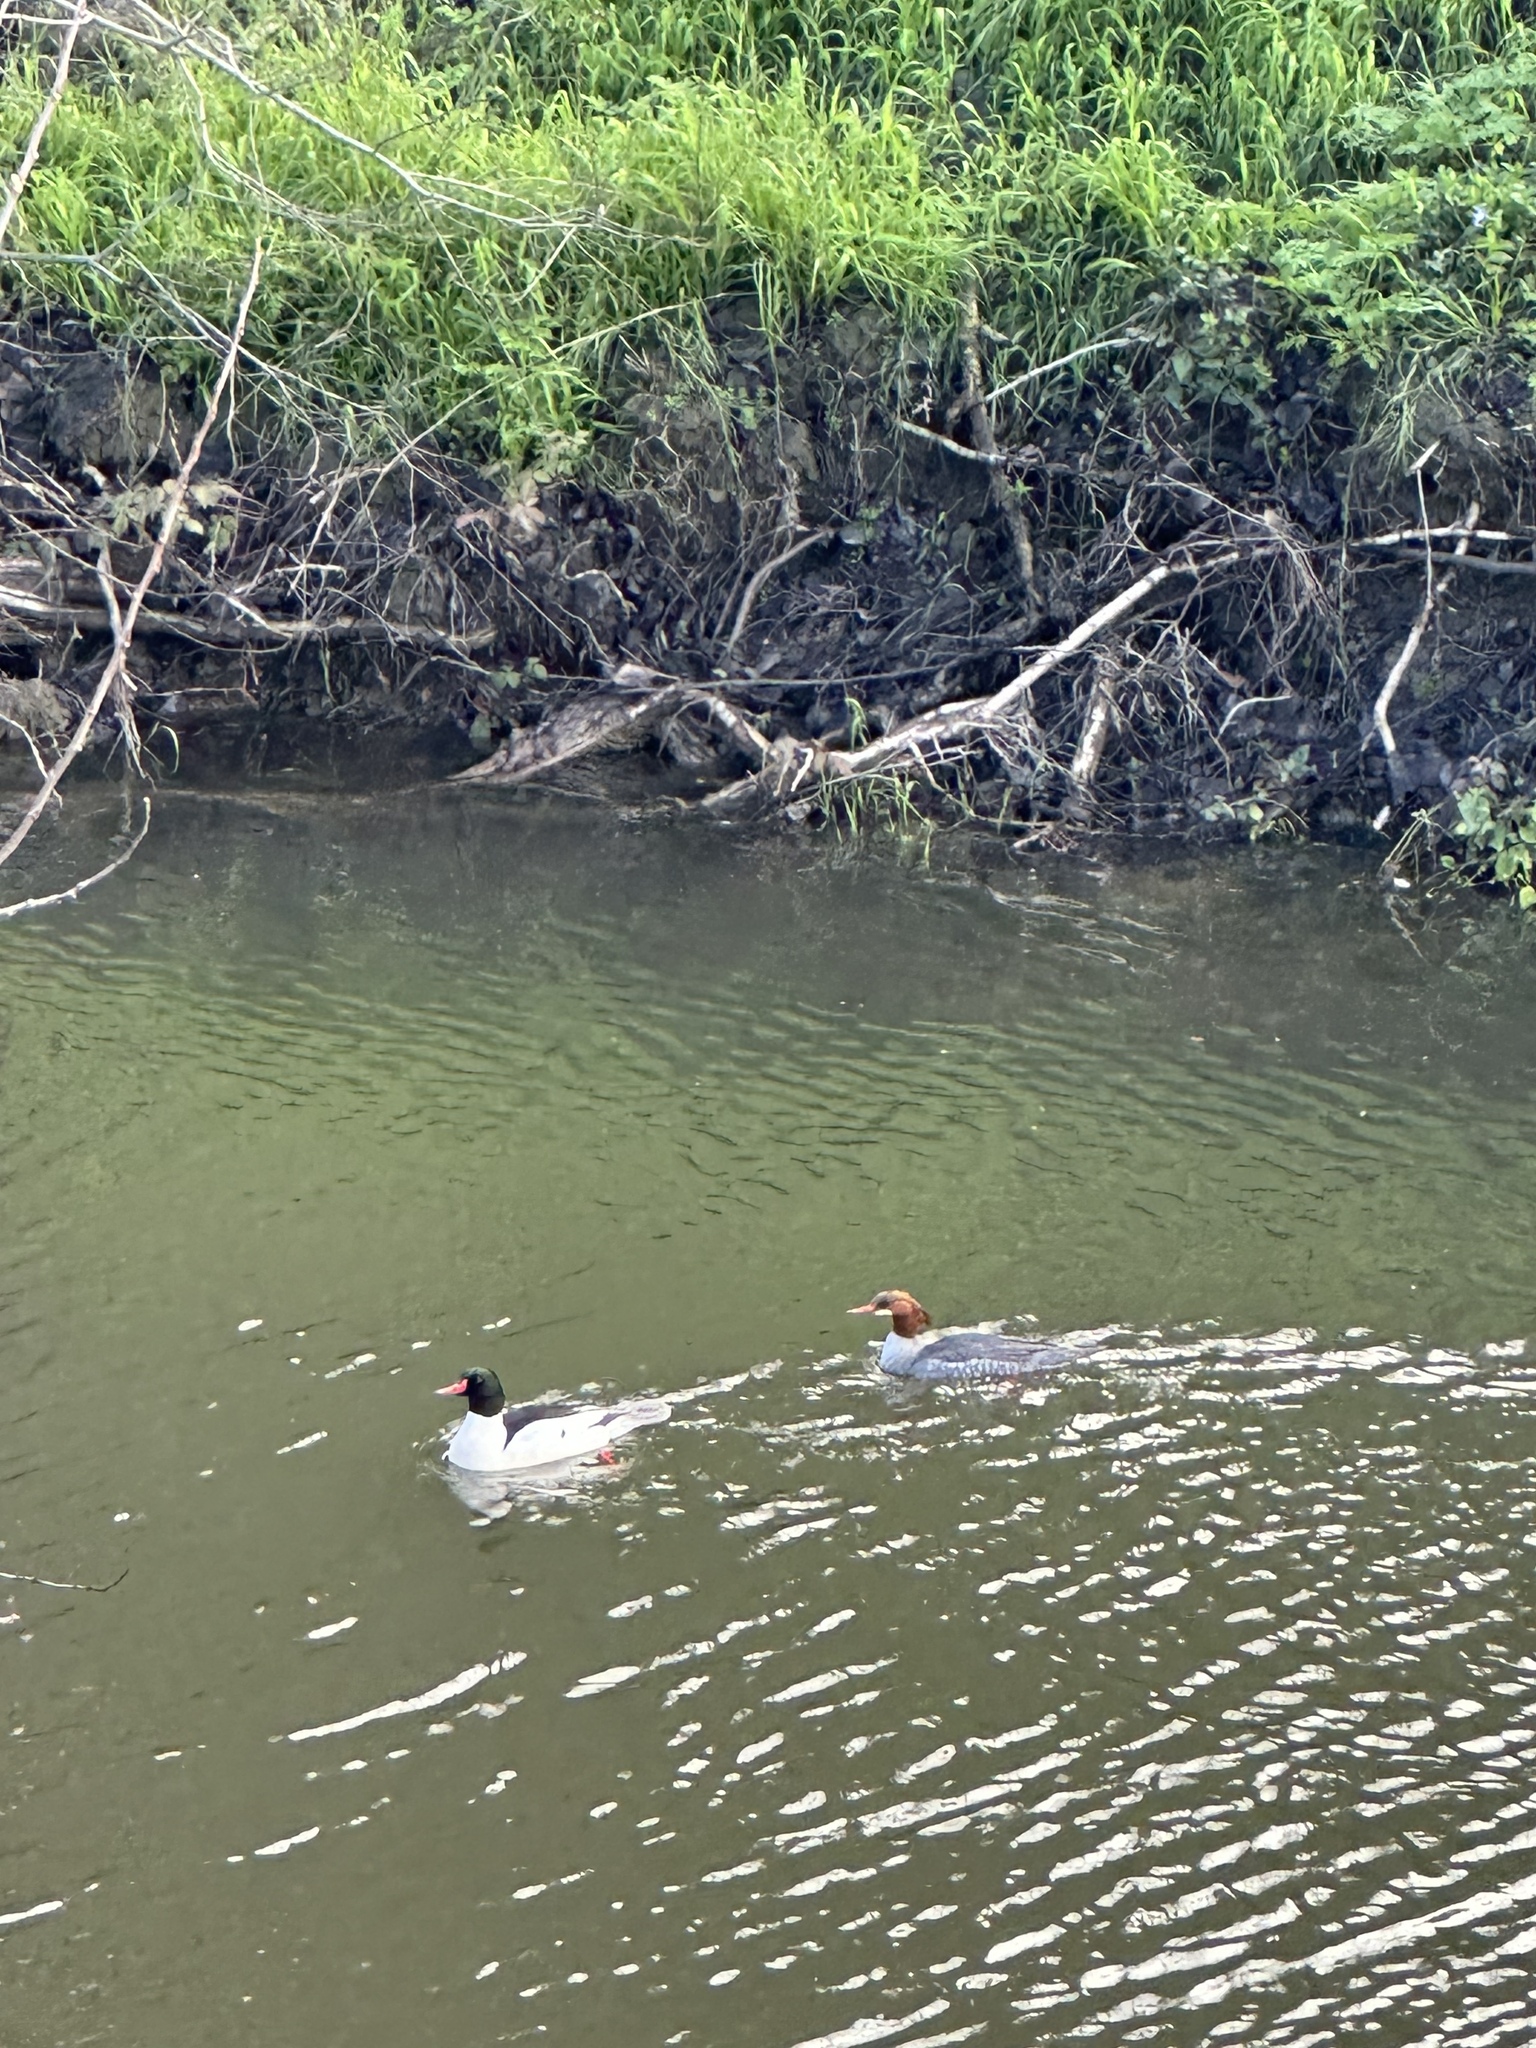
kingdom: Animalia
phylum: Chordata
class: Aves
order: Anseriformes
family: Anatidae
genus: Mergus
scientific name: Mergus merganser
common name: Common merganser
